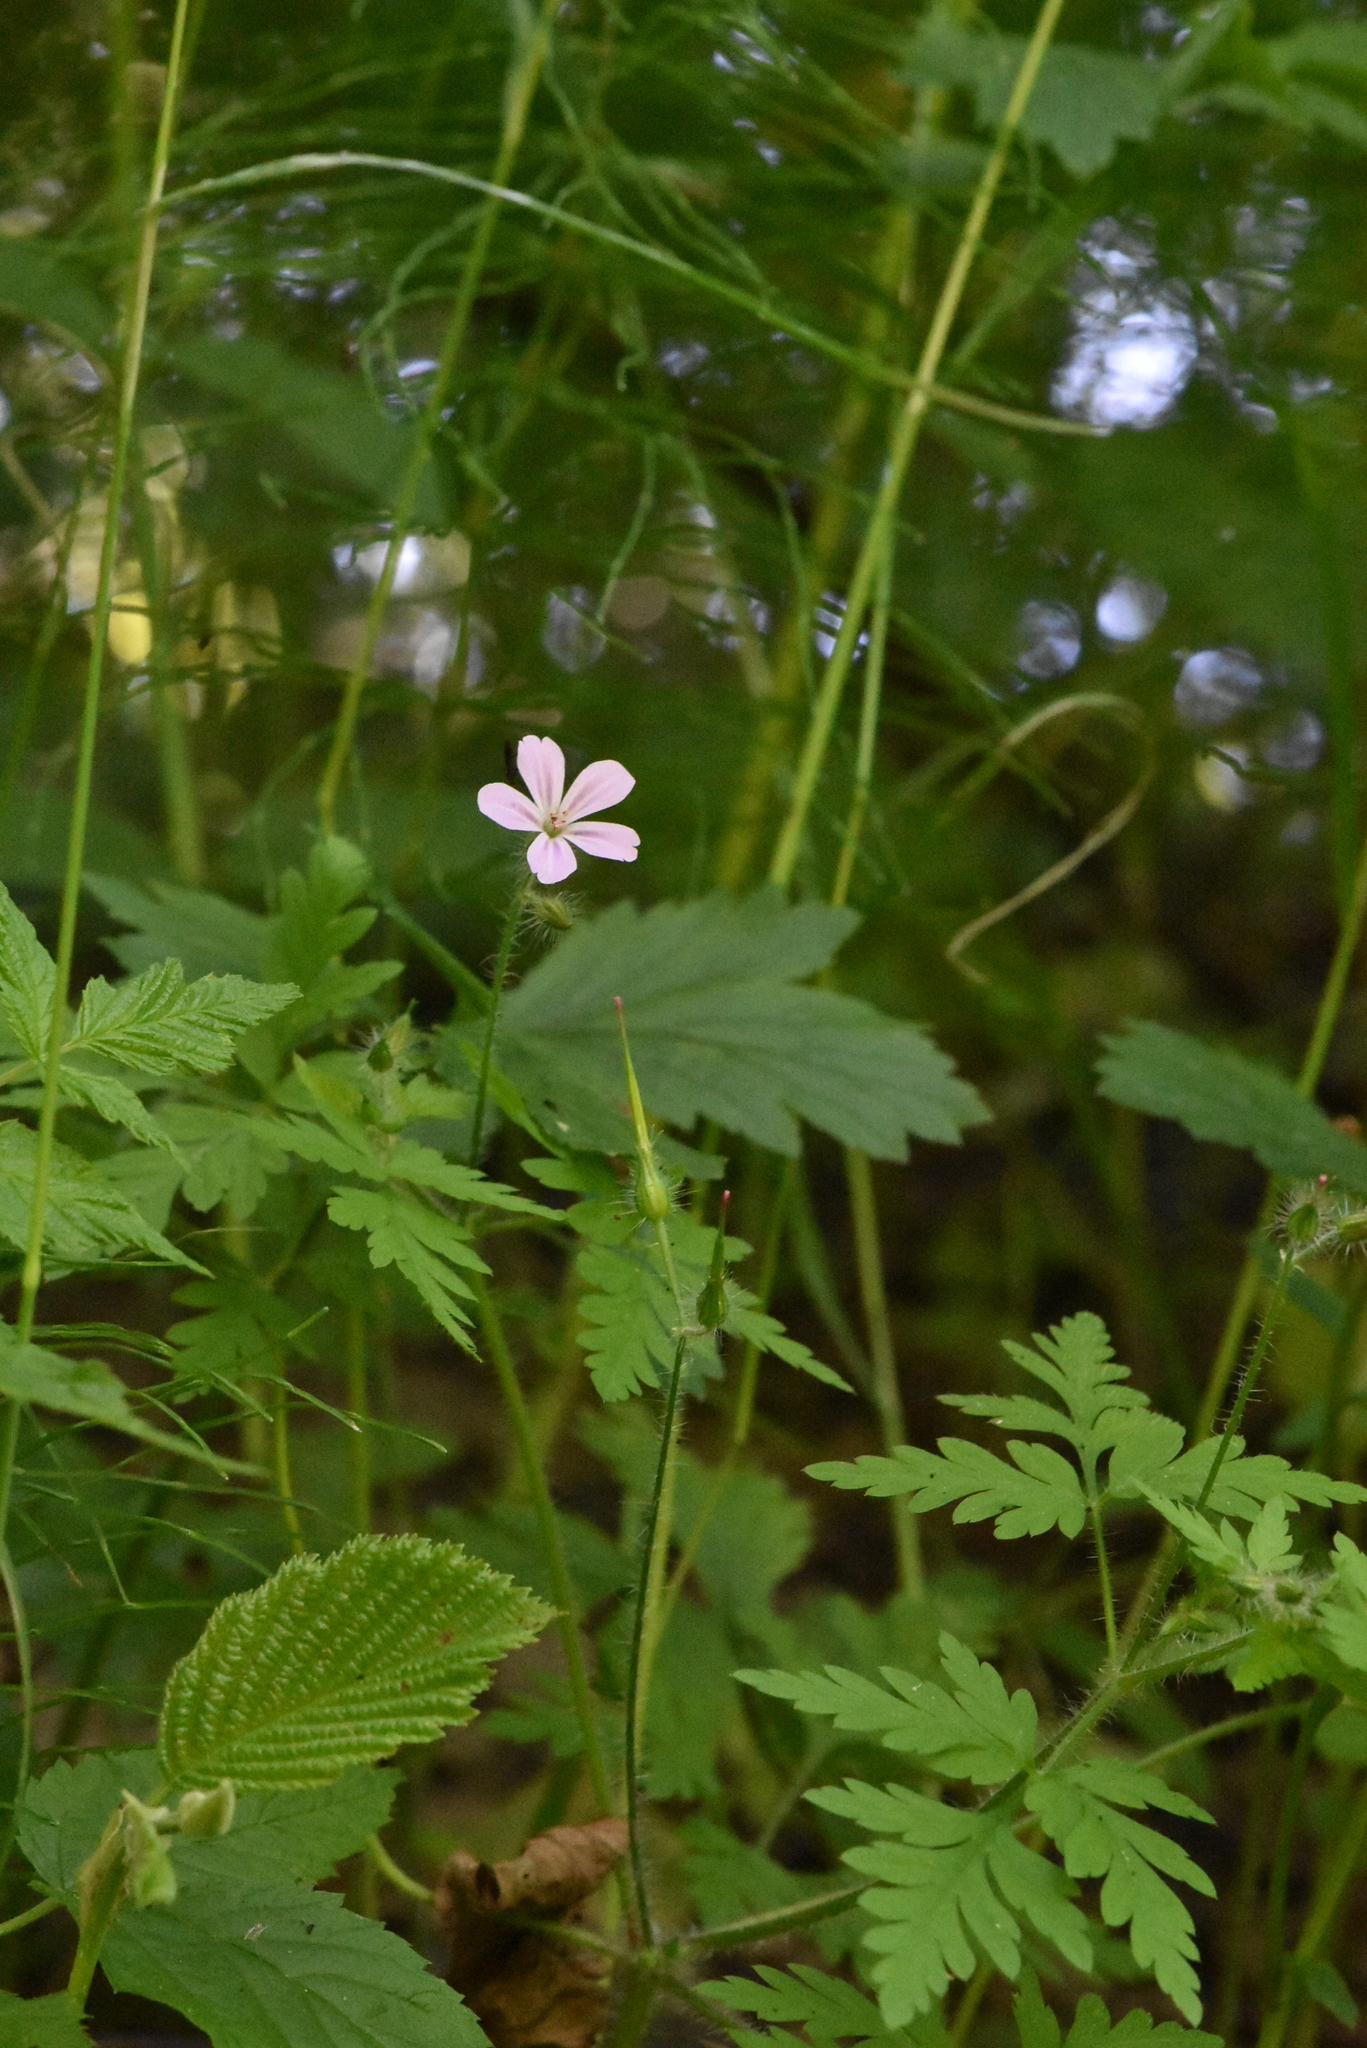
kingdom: Plantae
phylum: Tracheophyta
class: Magnoliopsida
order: Geraniales
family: Geraniaceae
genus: Geranium
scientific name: Geranium robertianum
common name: Herb-robert
